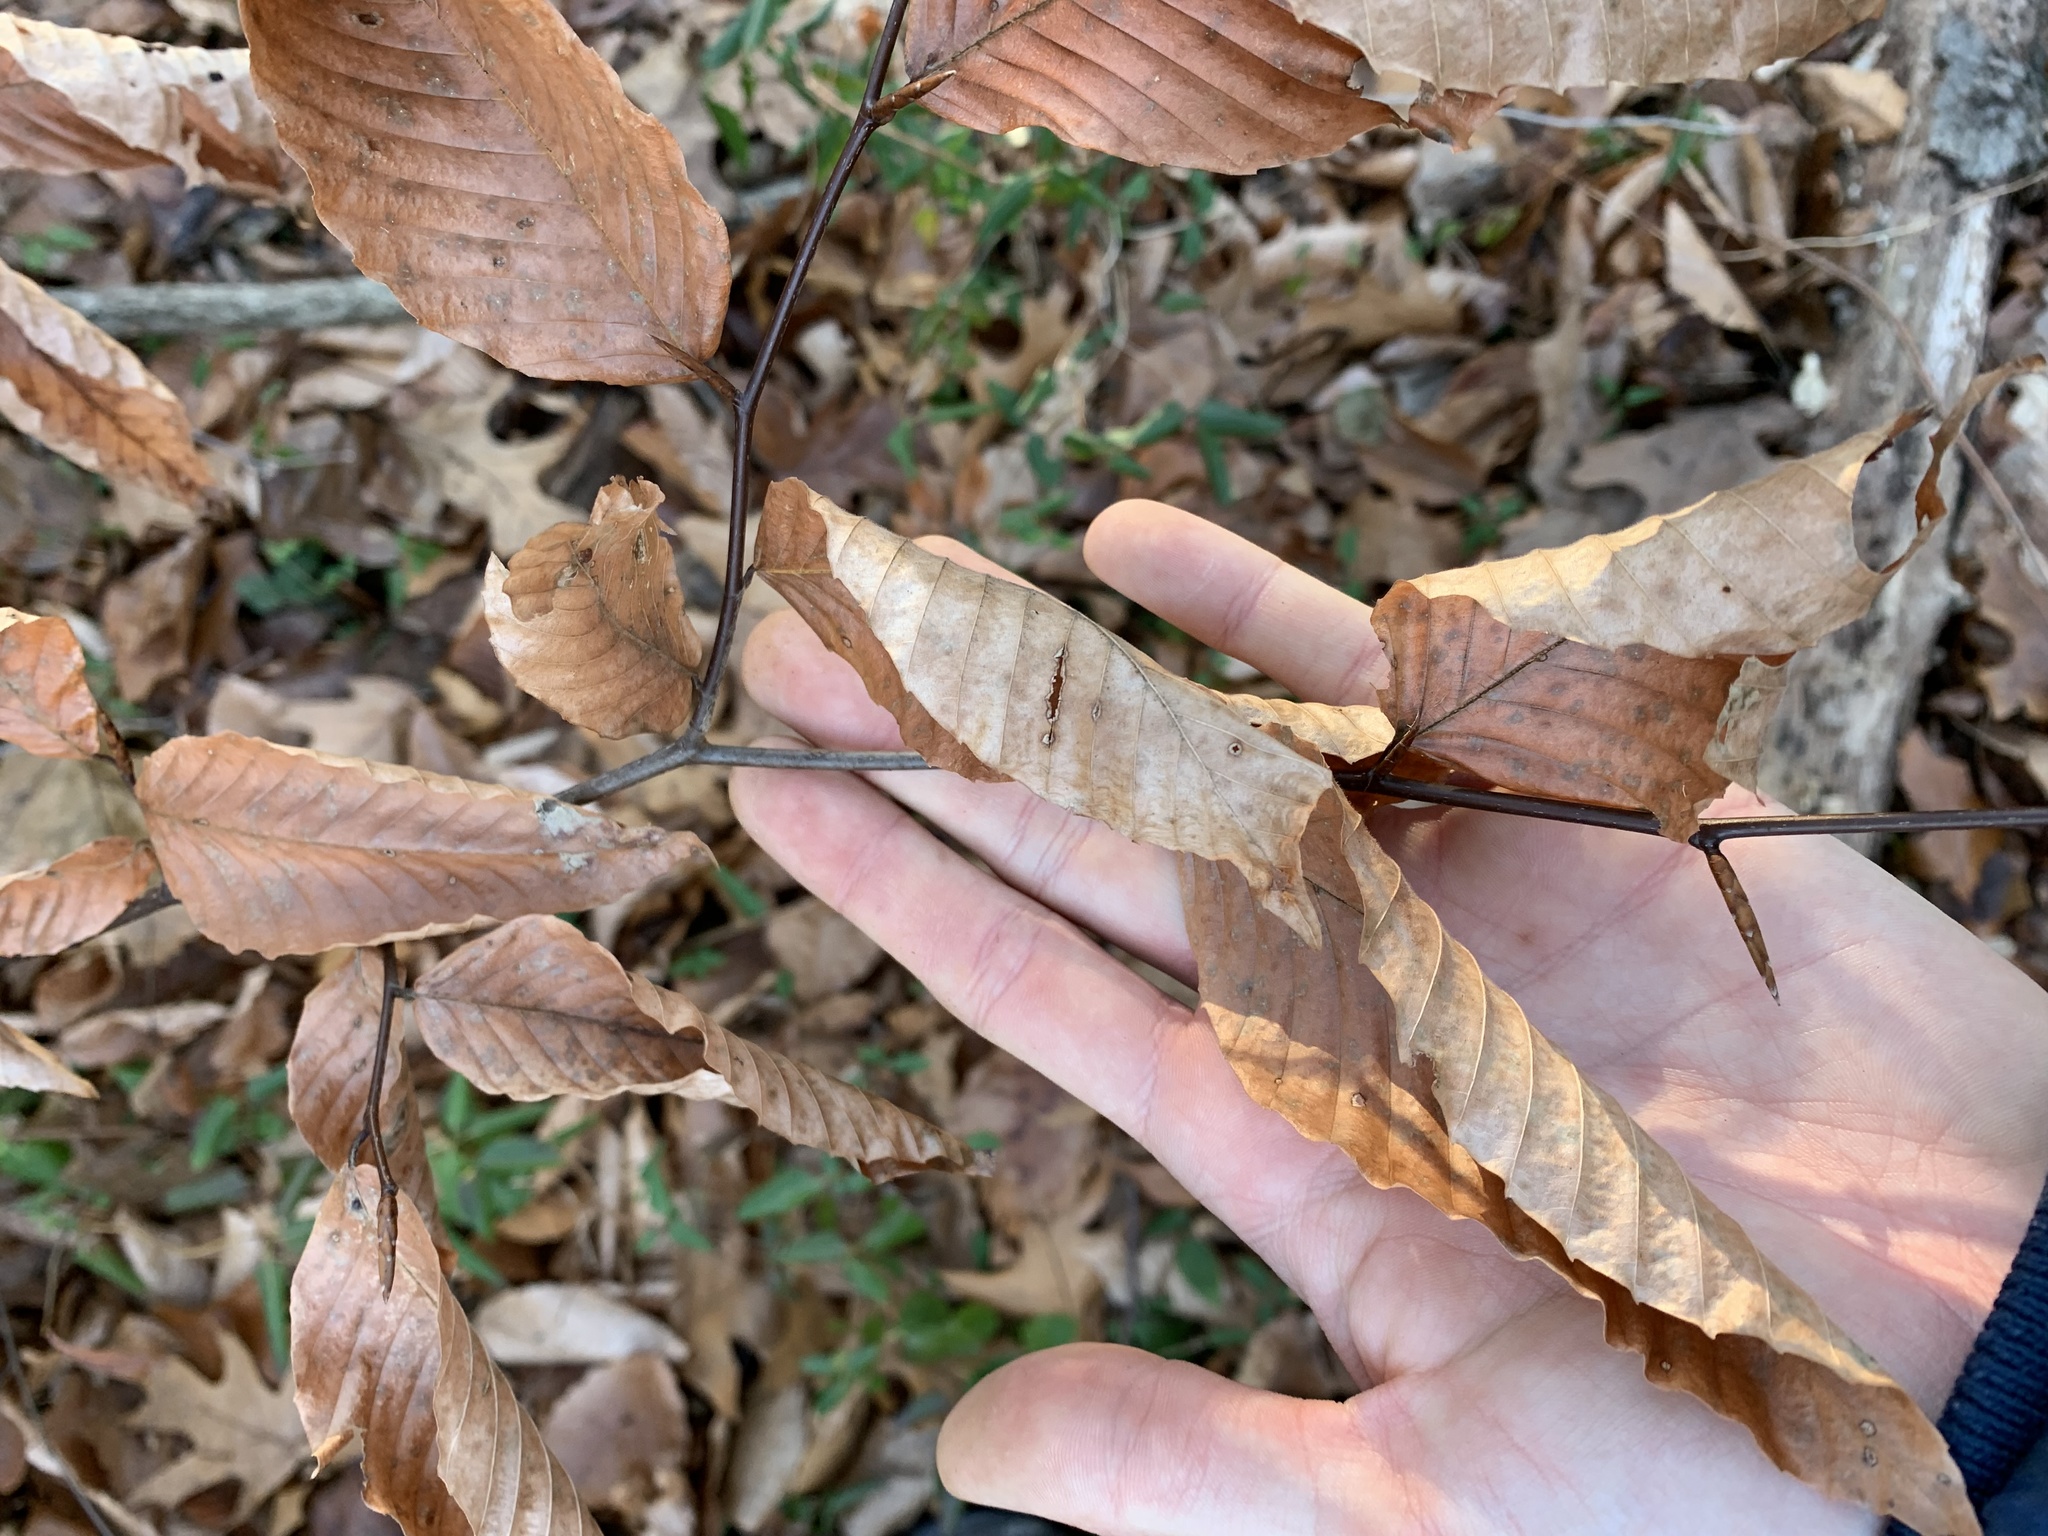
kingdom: Plantae
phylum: Tracheophyta
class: Magnoliopsida
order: Fagales
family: Fagaceae
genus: Fagus
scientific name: Fagus grandifolia
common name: American beech
